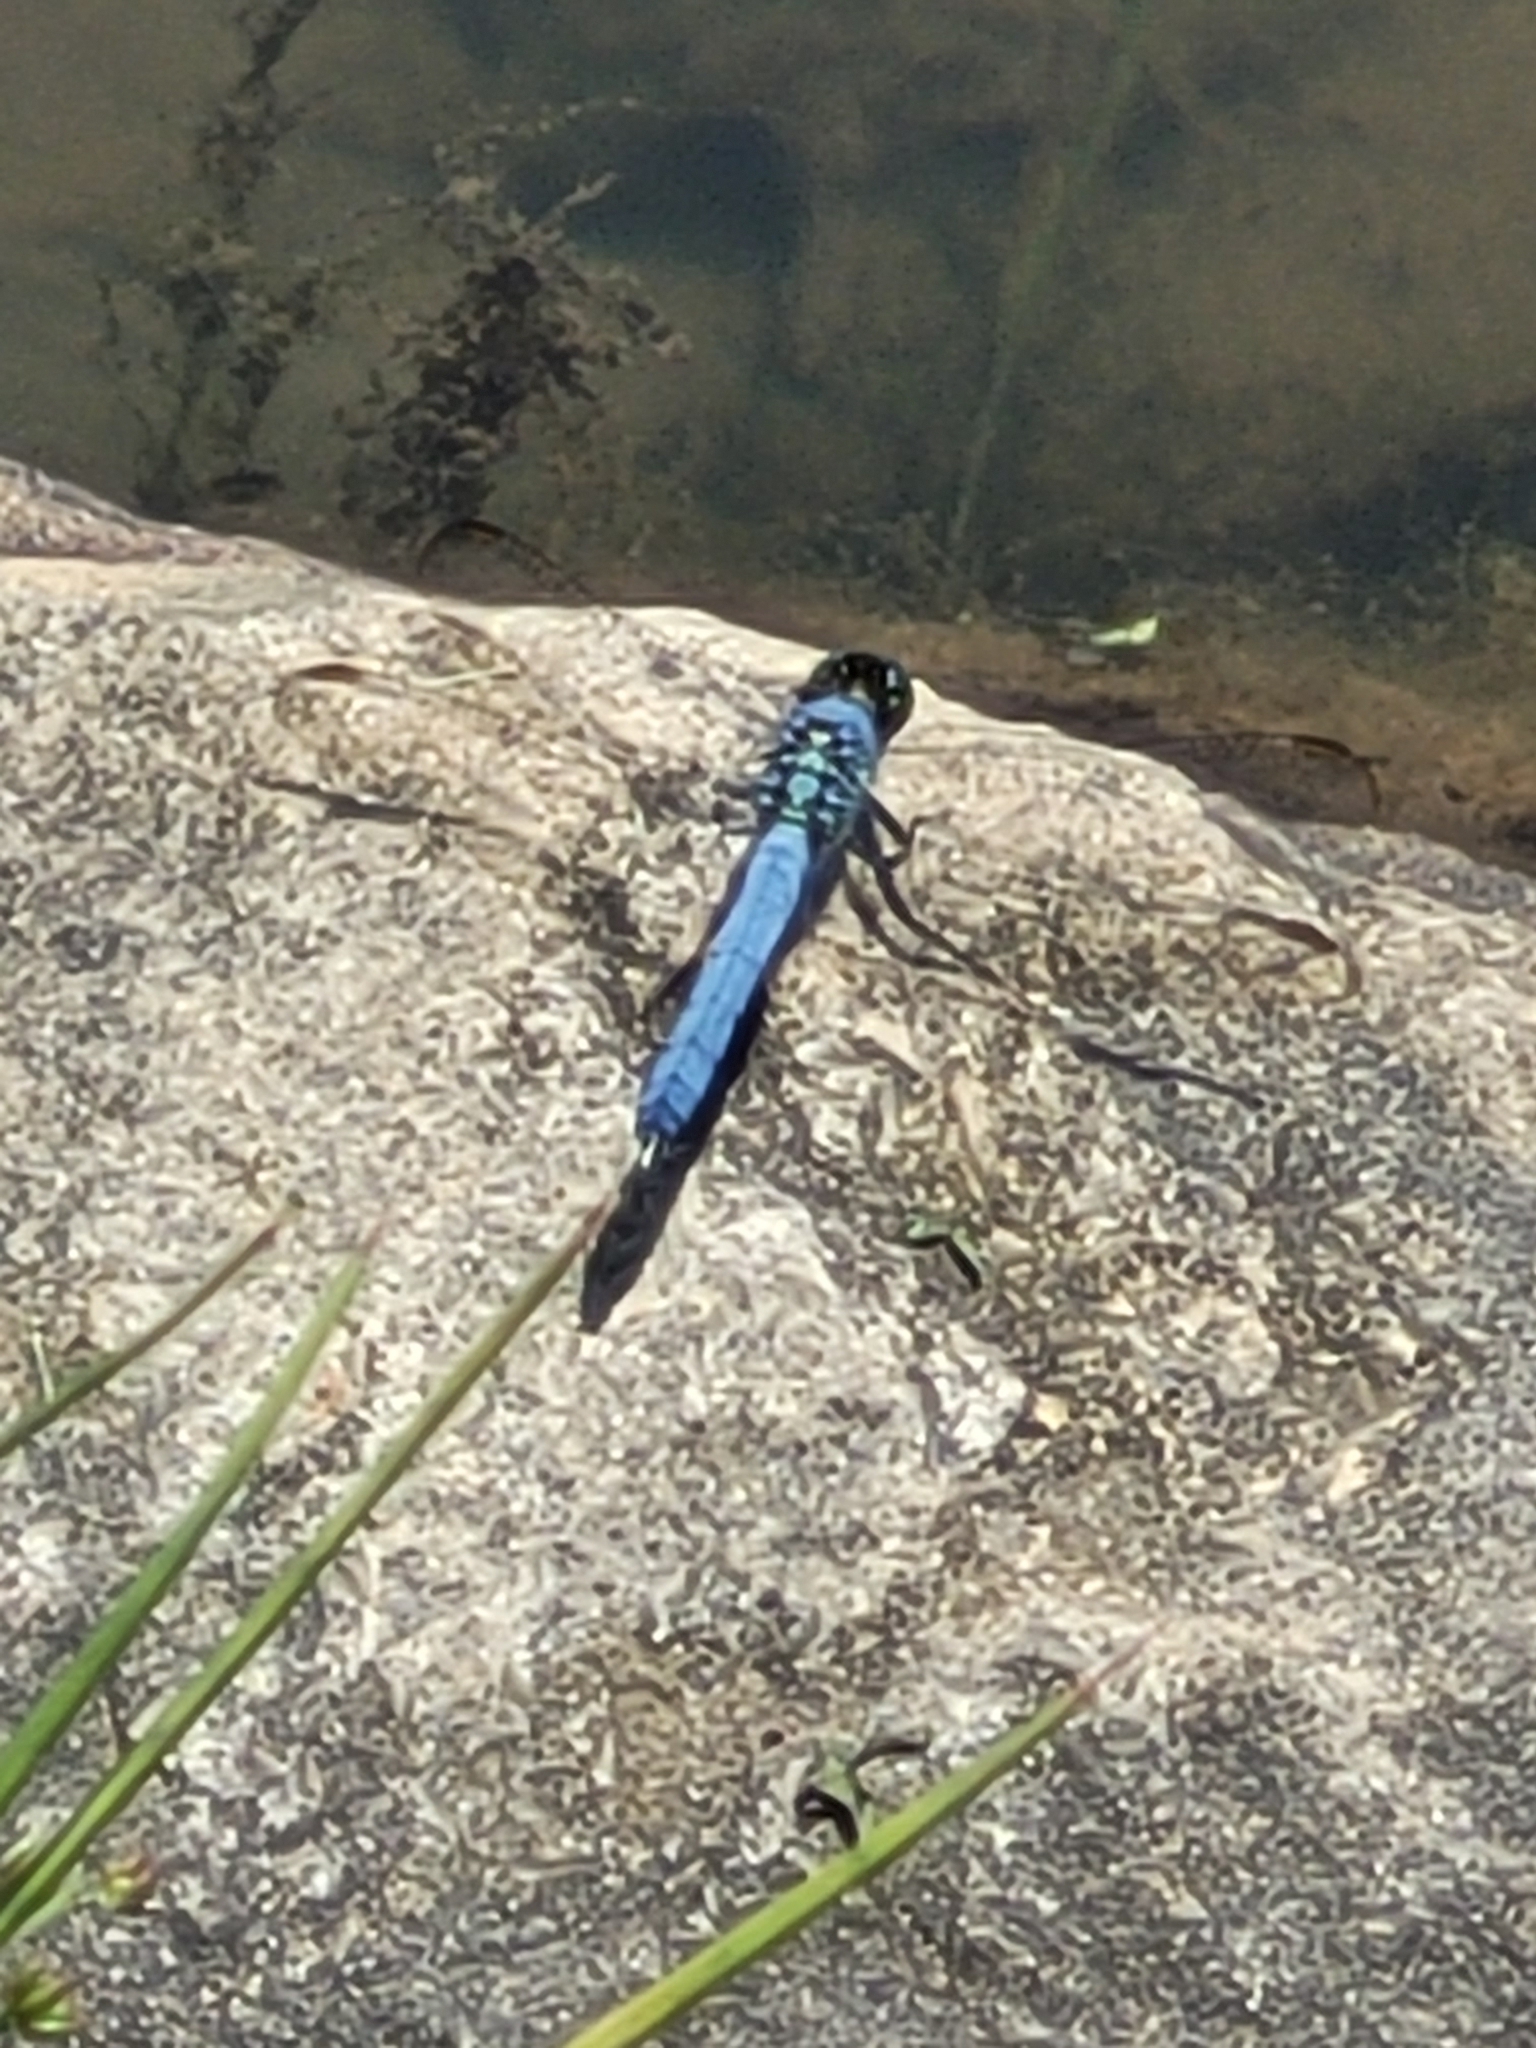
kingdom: Animalia
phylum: Arthropoda
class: Insecta
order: Odonata
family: Libellulidae
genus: Erythemis
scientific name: Erythemis simplicicollis
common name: Eastern pondhawk
